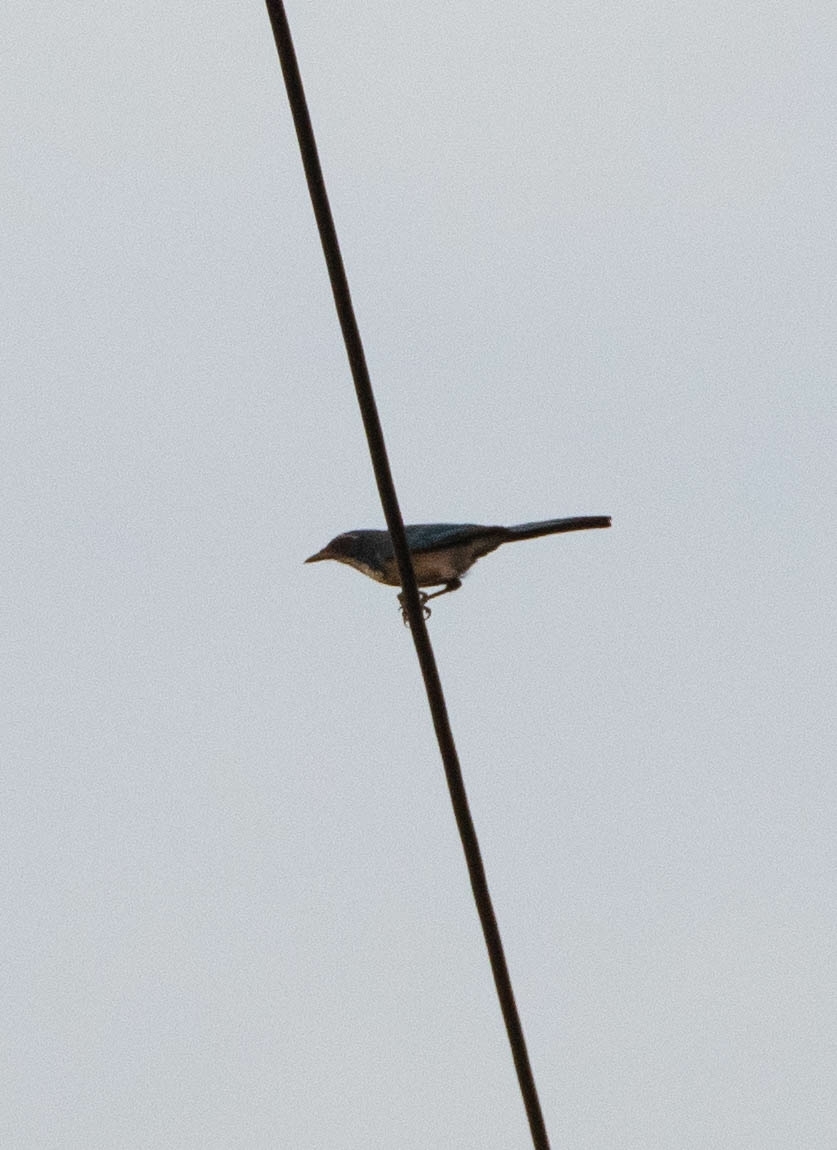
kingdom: Animalia
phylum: Chordata
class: Aves
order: Passeriformes
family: Corvidae
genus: Aphelocoma
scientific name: Aphelocoma californica
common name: California scrub-jay
